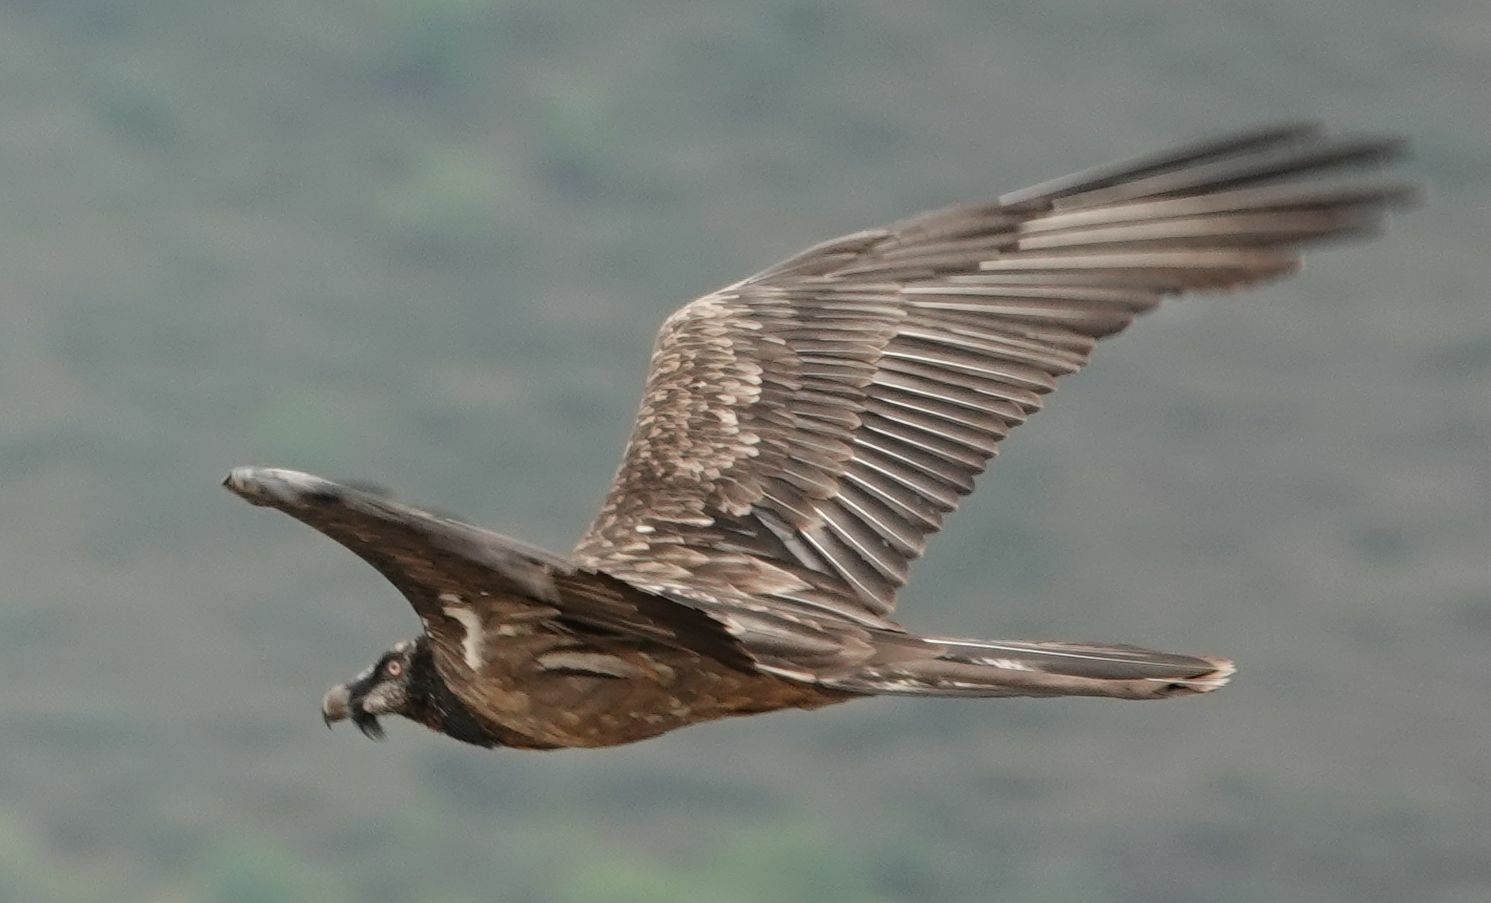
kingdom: Animalia
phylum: Chordata
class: Aves
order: Accipitriformes
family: Accipitridae
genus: Gypaetus
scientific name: Gypaetus barbatus
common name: Bearded vulture
